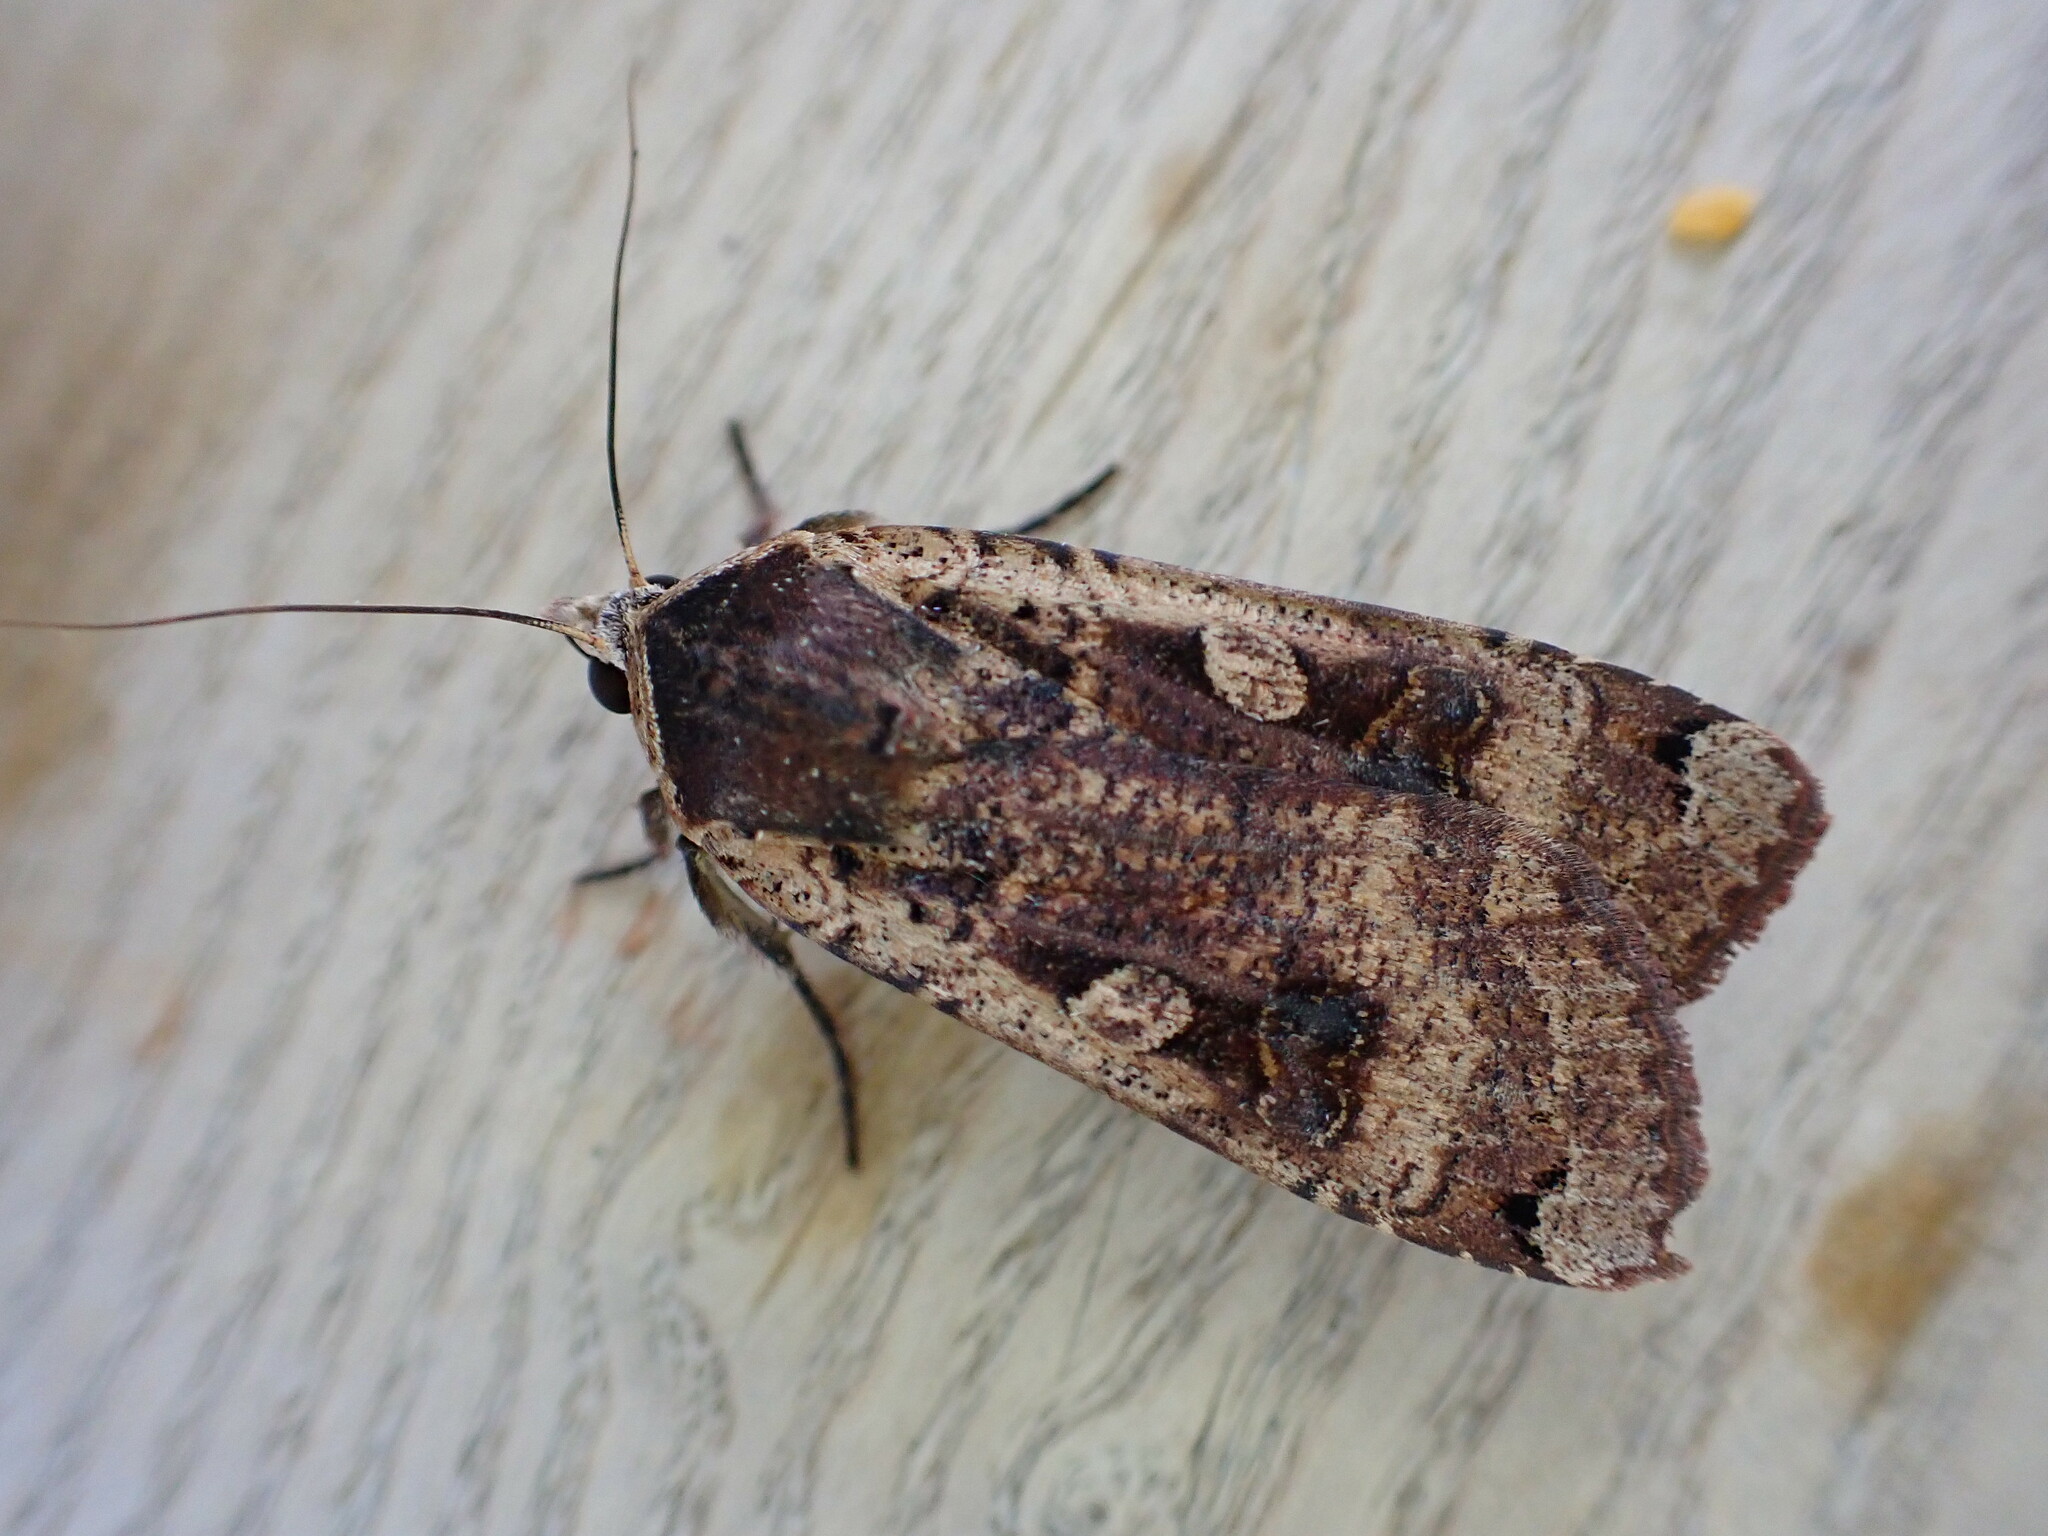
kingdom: Animalia
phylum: Arthropoda
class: Insecta
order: Lepidoptera
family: Noctuidae
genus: Noctua
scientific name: Noctua pronuba
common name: Large yellow underwing
